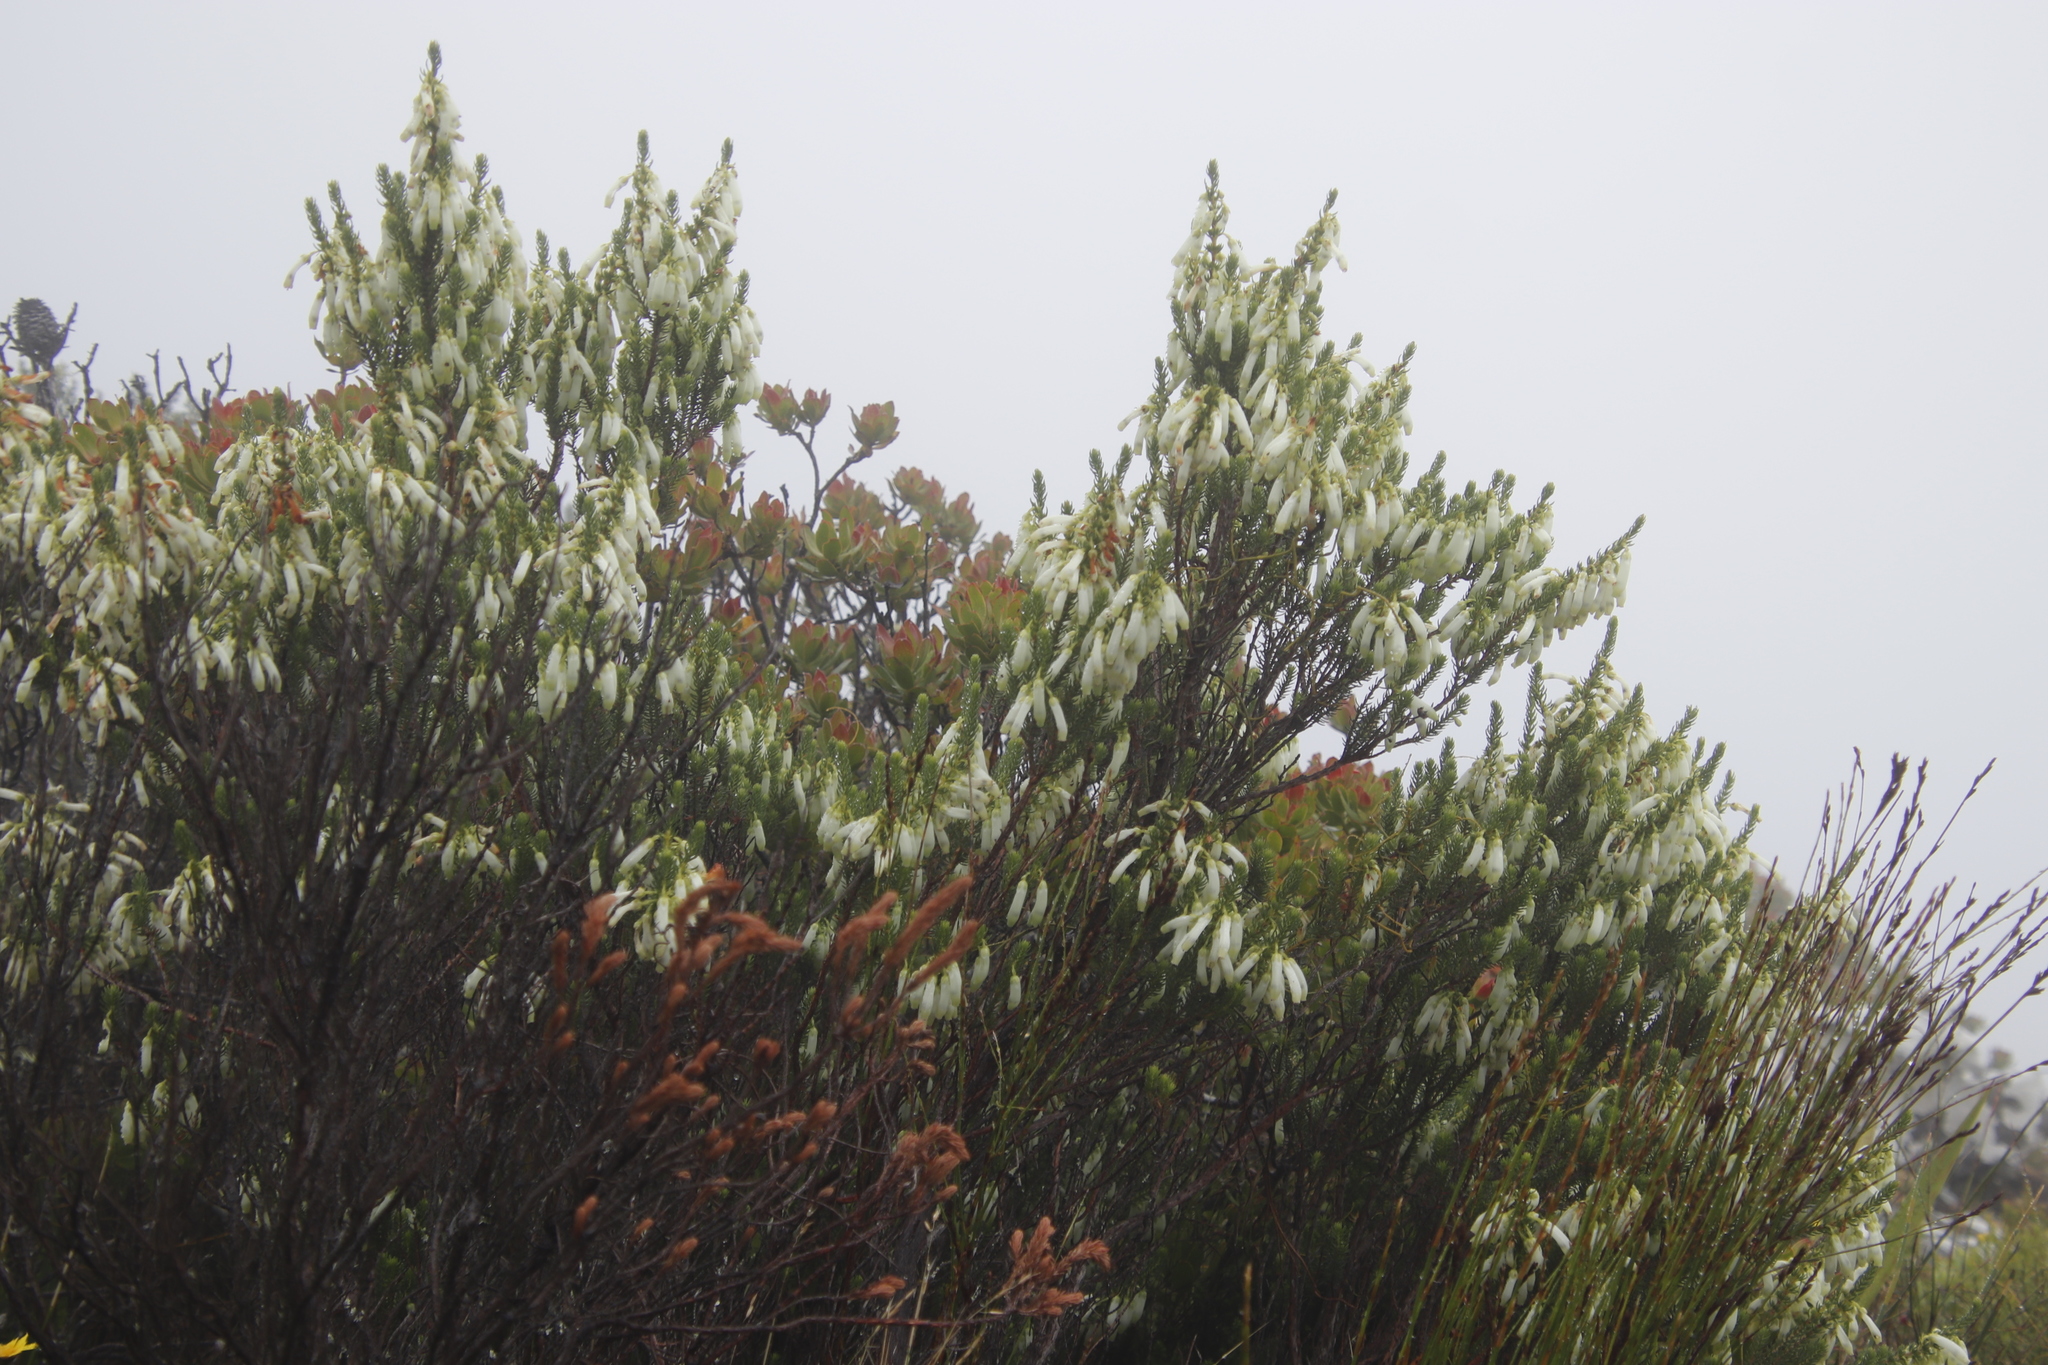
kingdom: Plantae
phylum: Tracheophyta
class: Magnoliopsida
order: Ericales
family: Ericaceae
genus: Erica
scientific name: Erica mammosa
